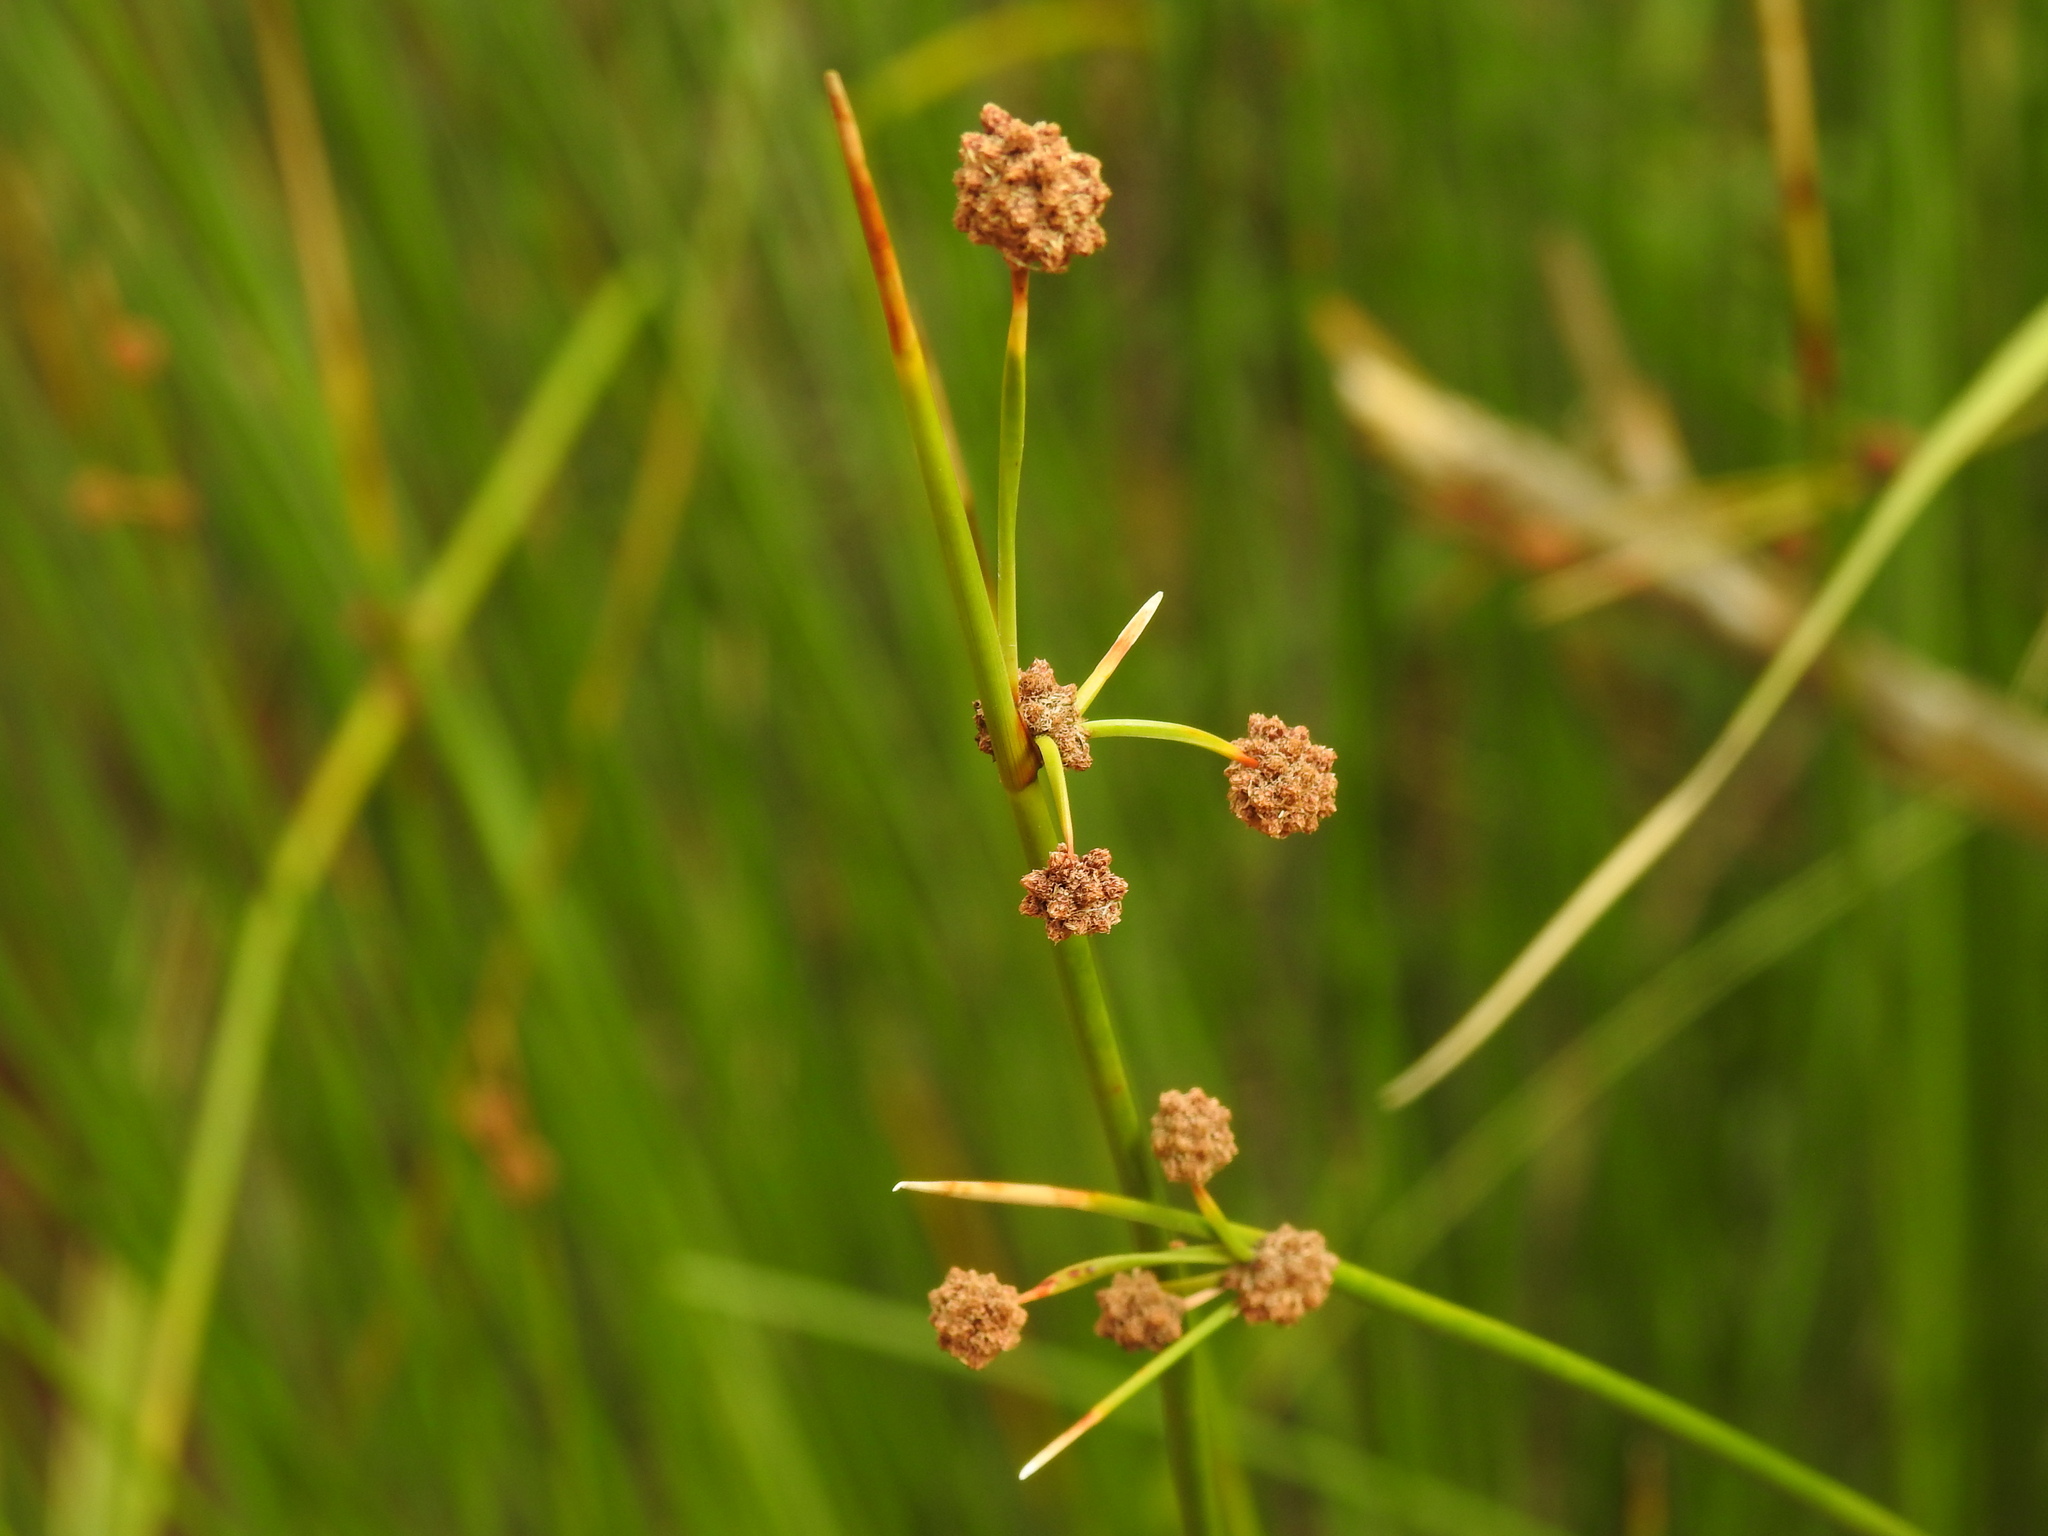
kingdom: Plantae
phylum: Tracheophyta
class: Liliopsida
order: Poales
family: Cyperaceae
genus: Scirpoides
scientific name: Scirpoides holoschoenus
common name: Round-headed club-rush
